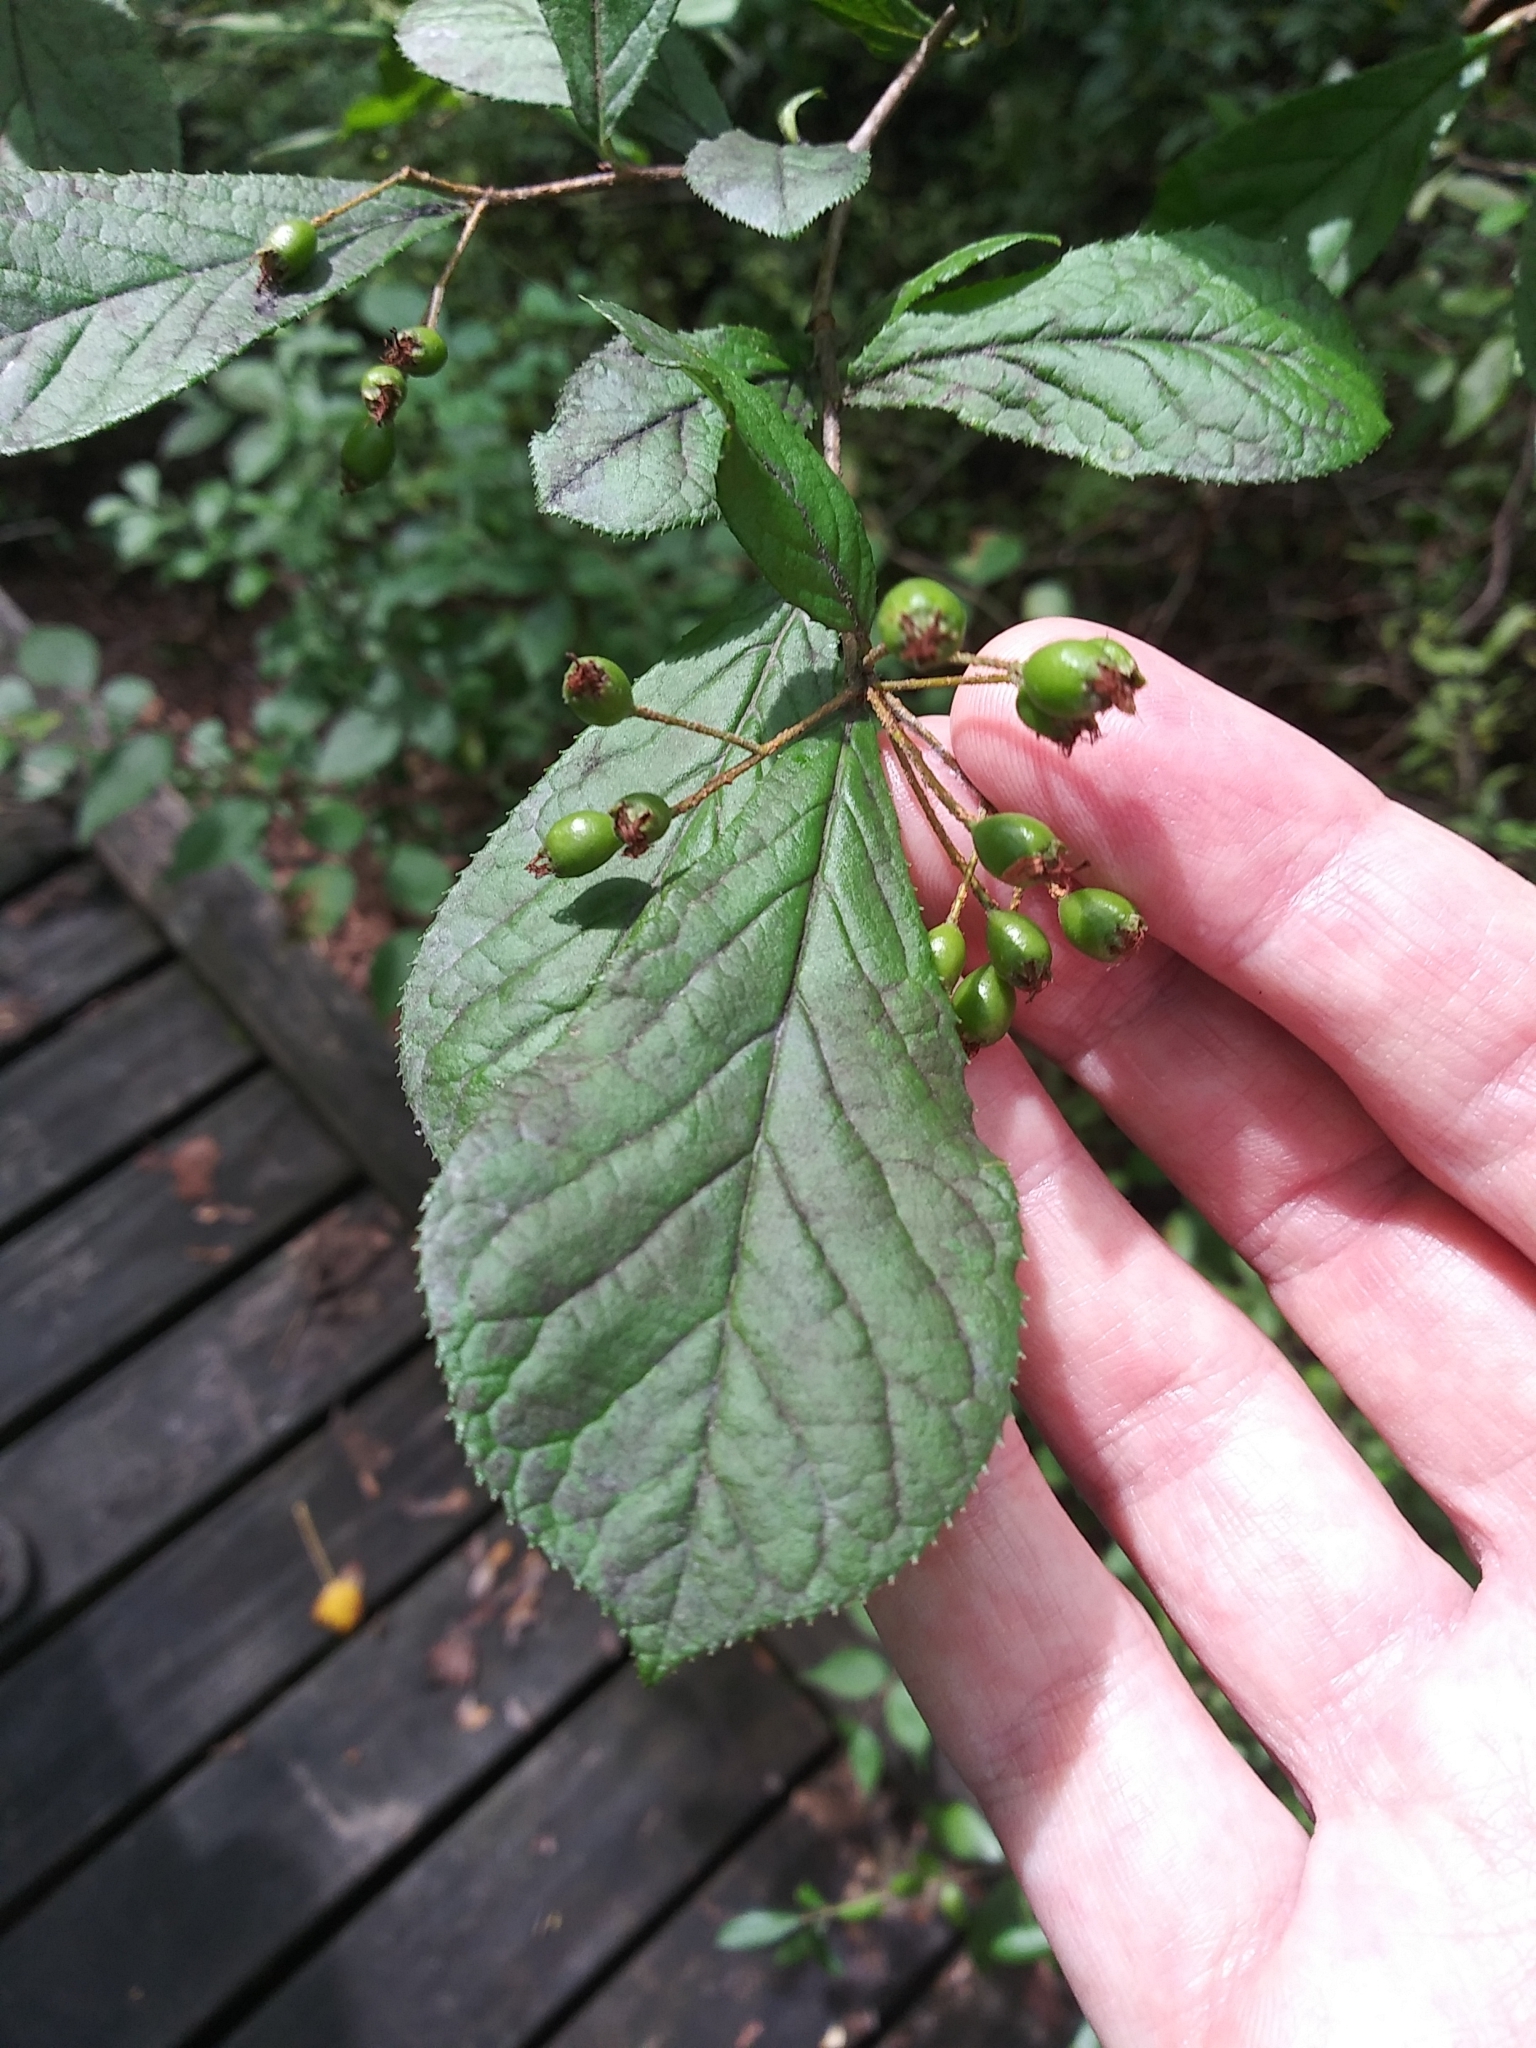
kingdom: Plantae
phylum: Tracheophyta
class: Magnoliopsida
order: Rosales
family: Rosaceae
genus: Pourthiaea
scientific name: Pourthiaea villosa
